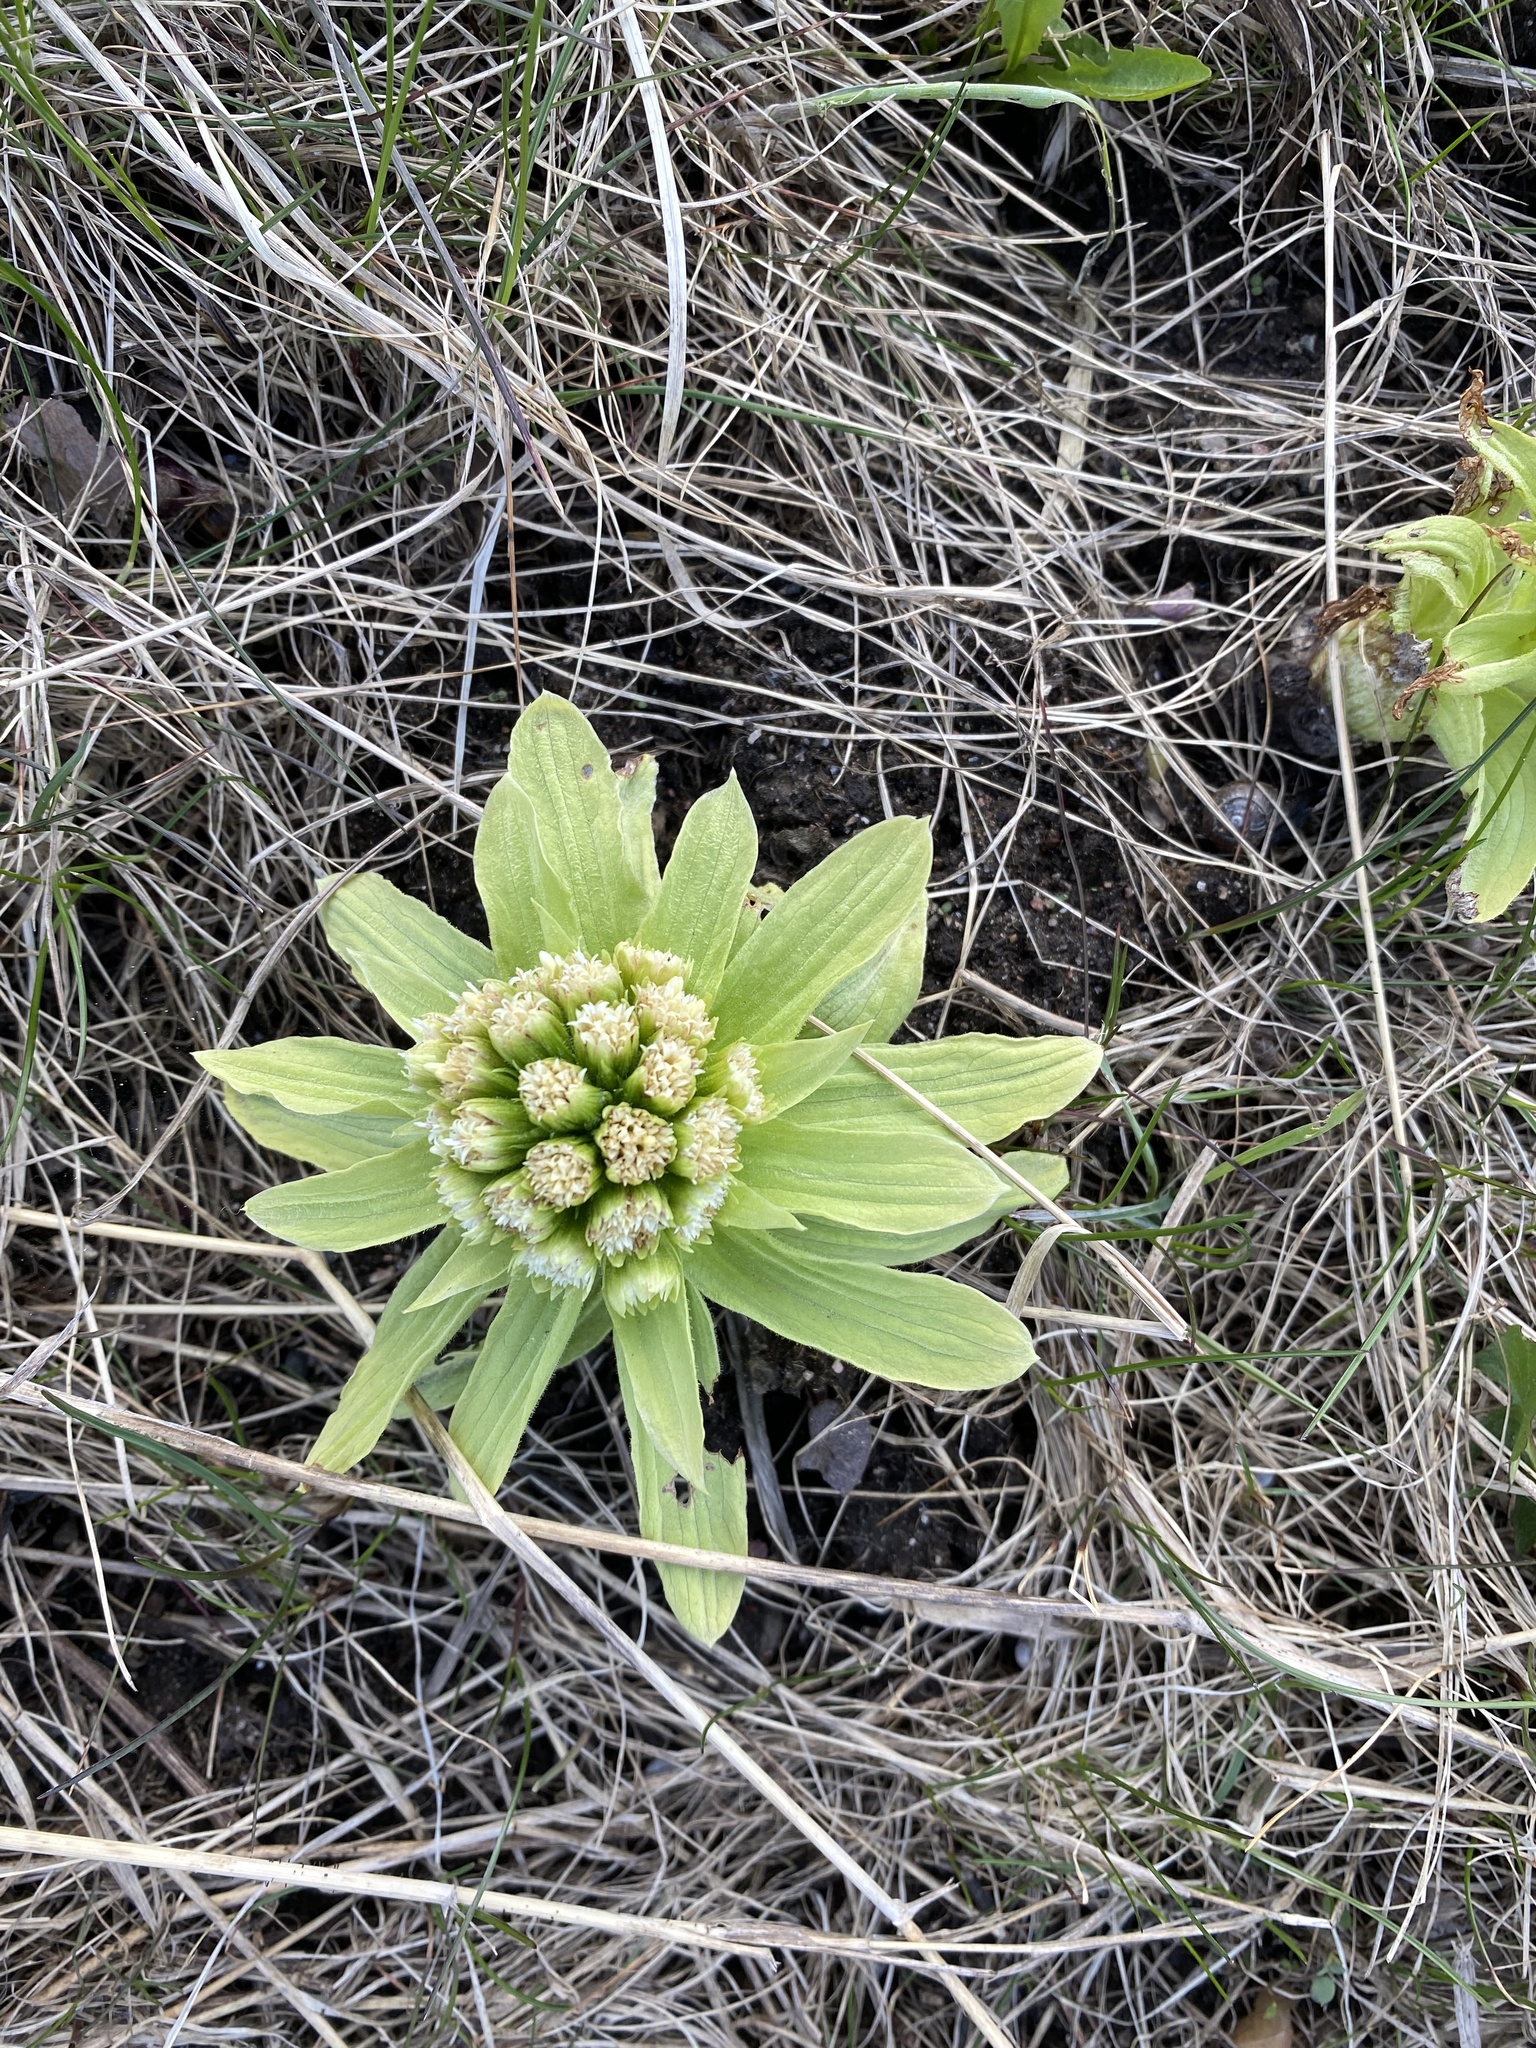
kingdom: Plantae
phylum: Tracheophyta
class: Magnoliopsida
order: Asterales
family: Asteraceae
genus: Petasites
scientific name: Petasites japonicus
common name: Giant butterbur
